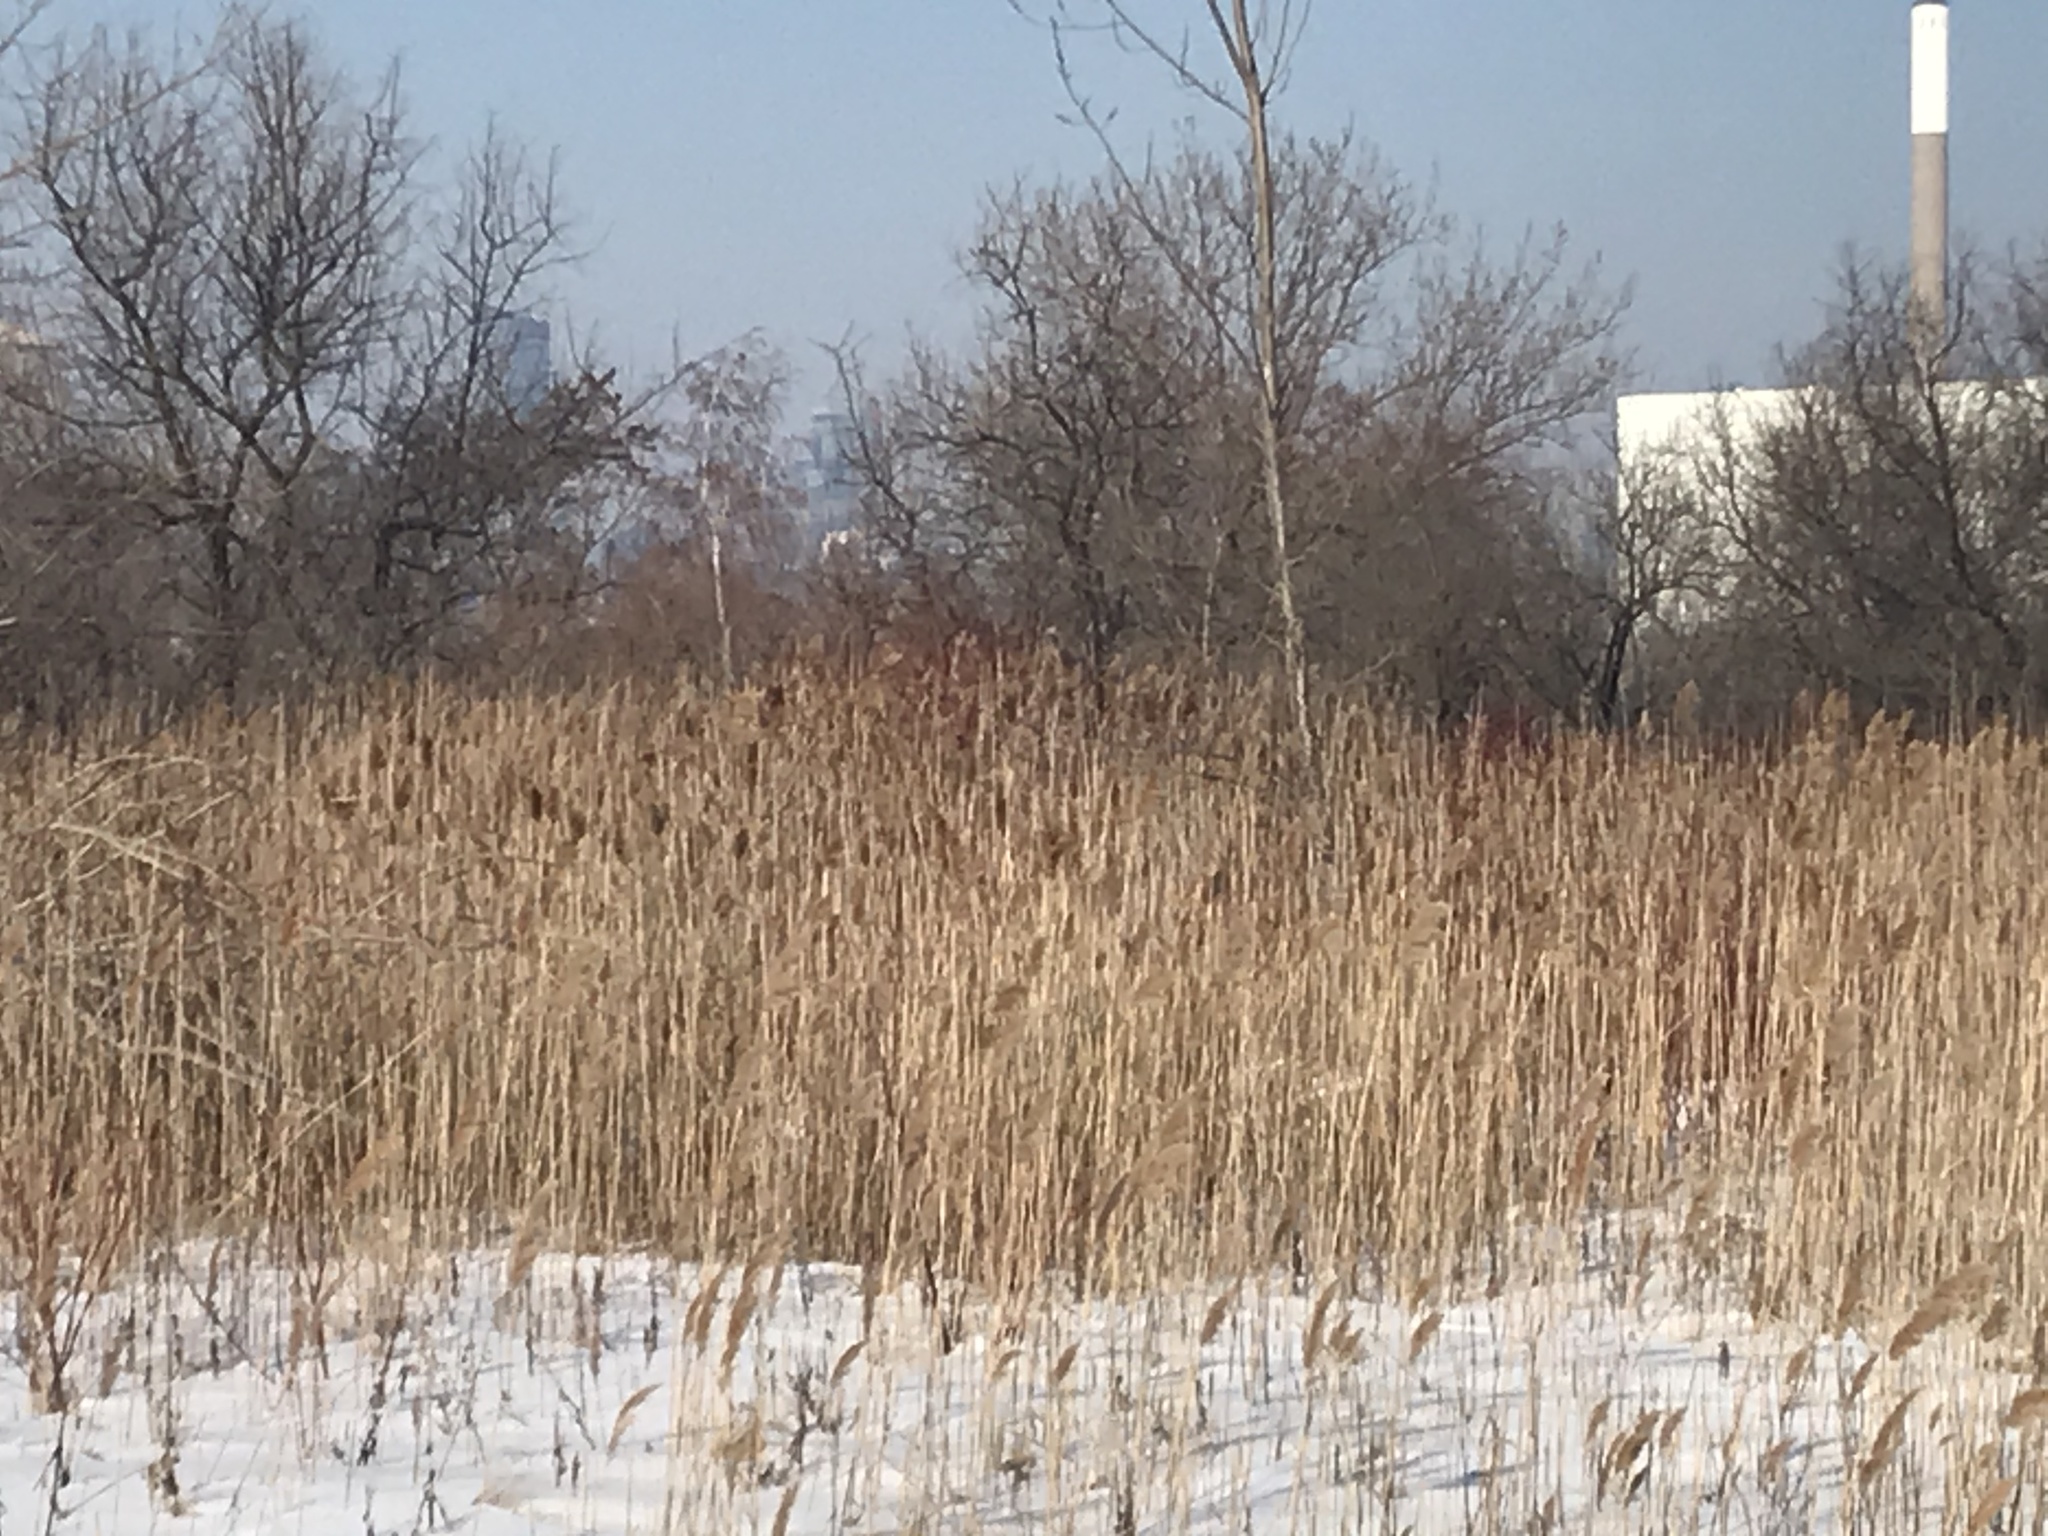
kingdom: Plantae
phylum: Tracheophyta
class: Liliopsida
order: Poales
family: Poaceae
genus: Phragmites
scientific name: Phragmites australis
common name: Common reed
